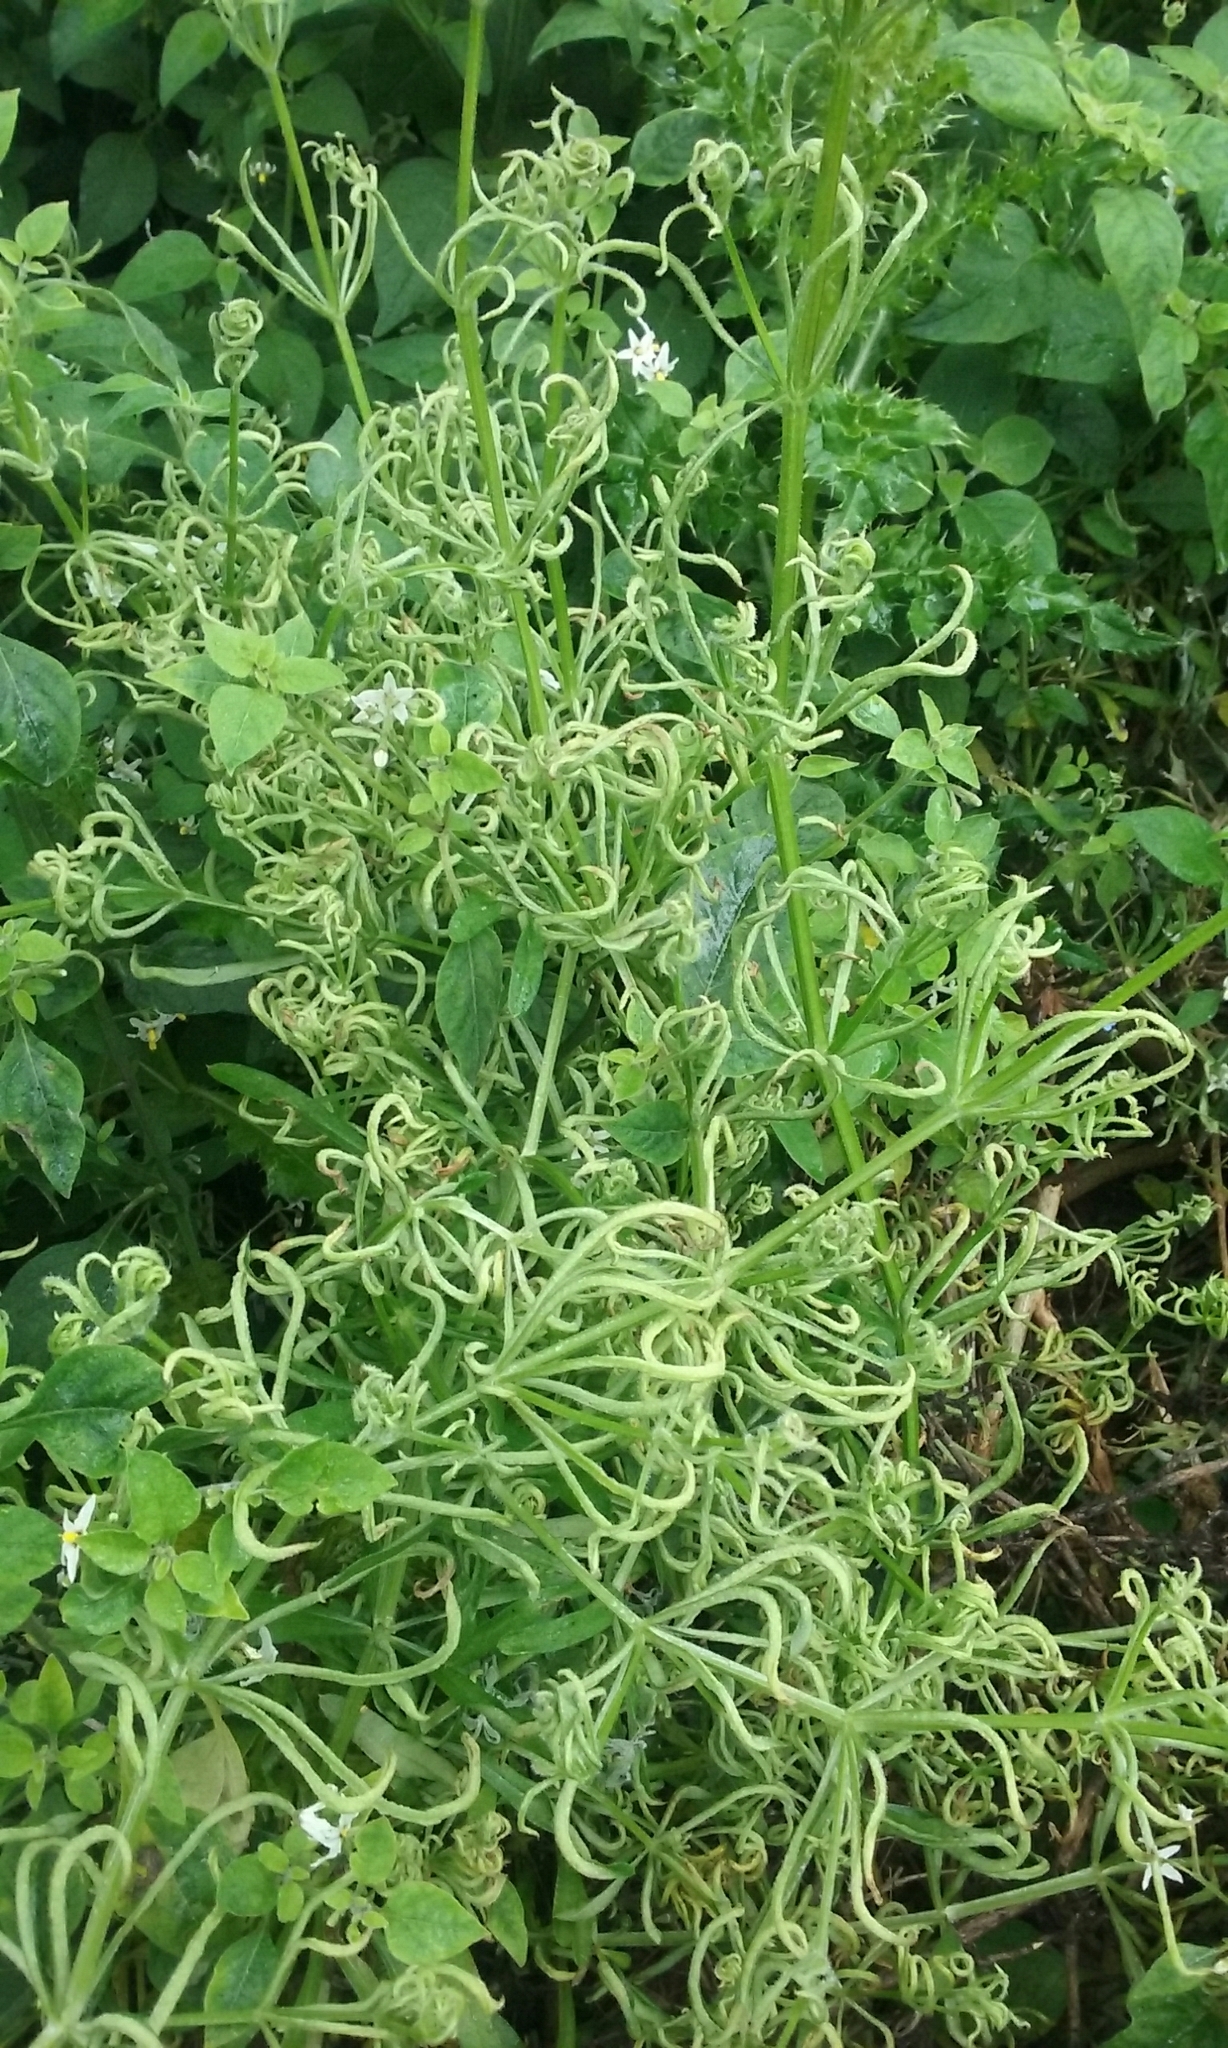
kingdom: Animalia
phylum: Arthropoda
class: Arachnida
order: Trombidiformes
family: Eriophyidae
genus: Cecidophyes
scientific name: Cecidophyes rouhollahi
